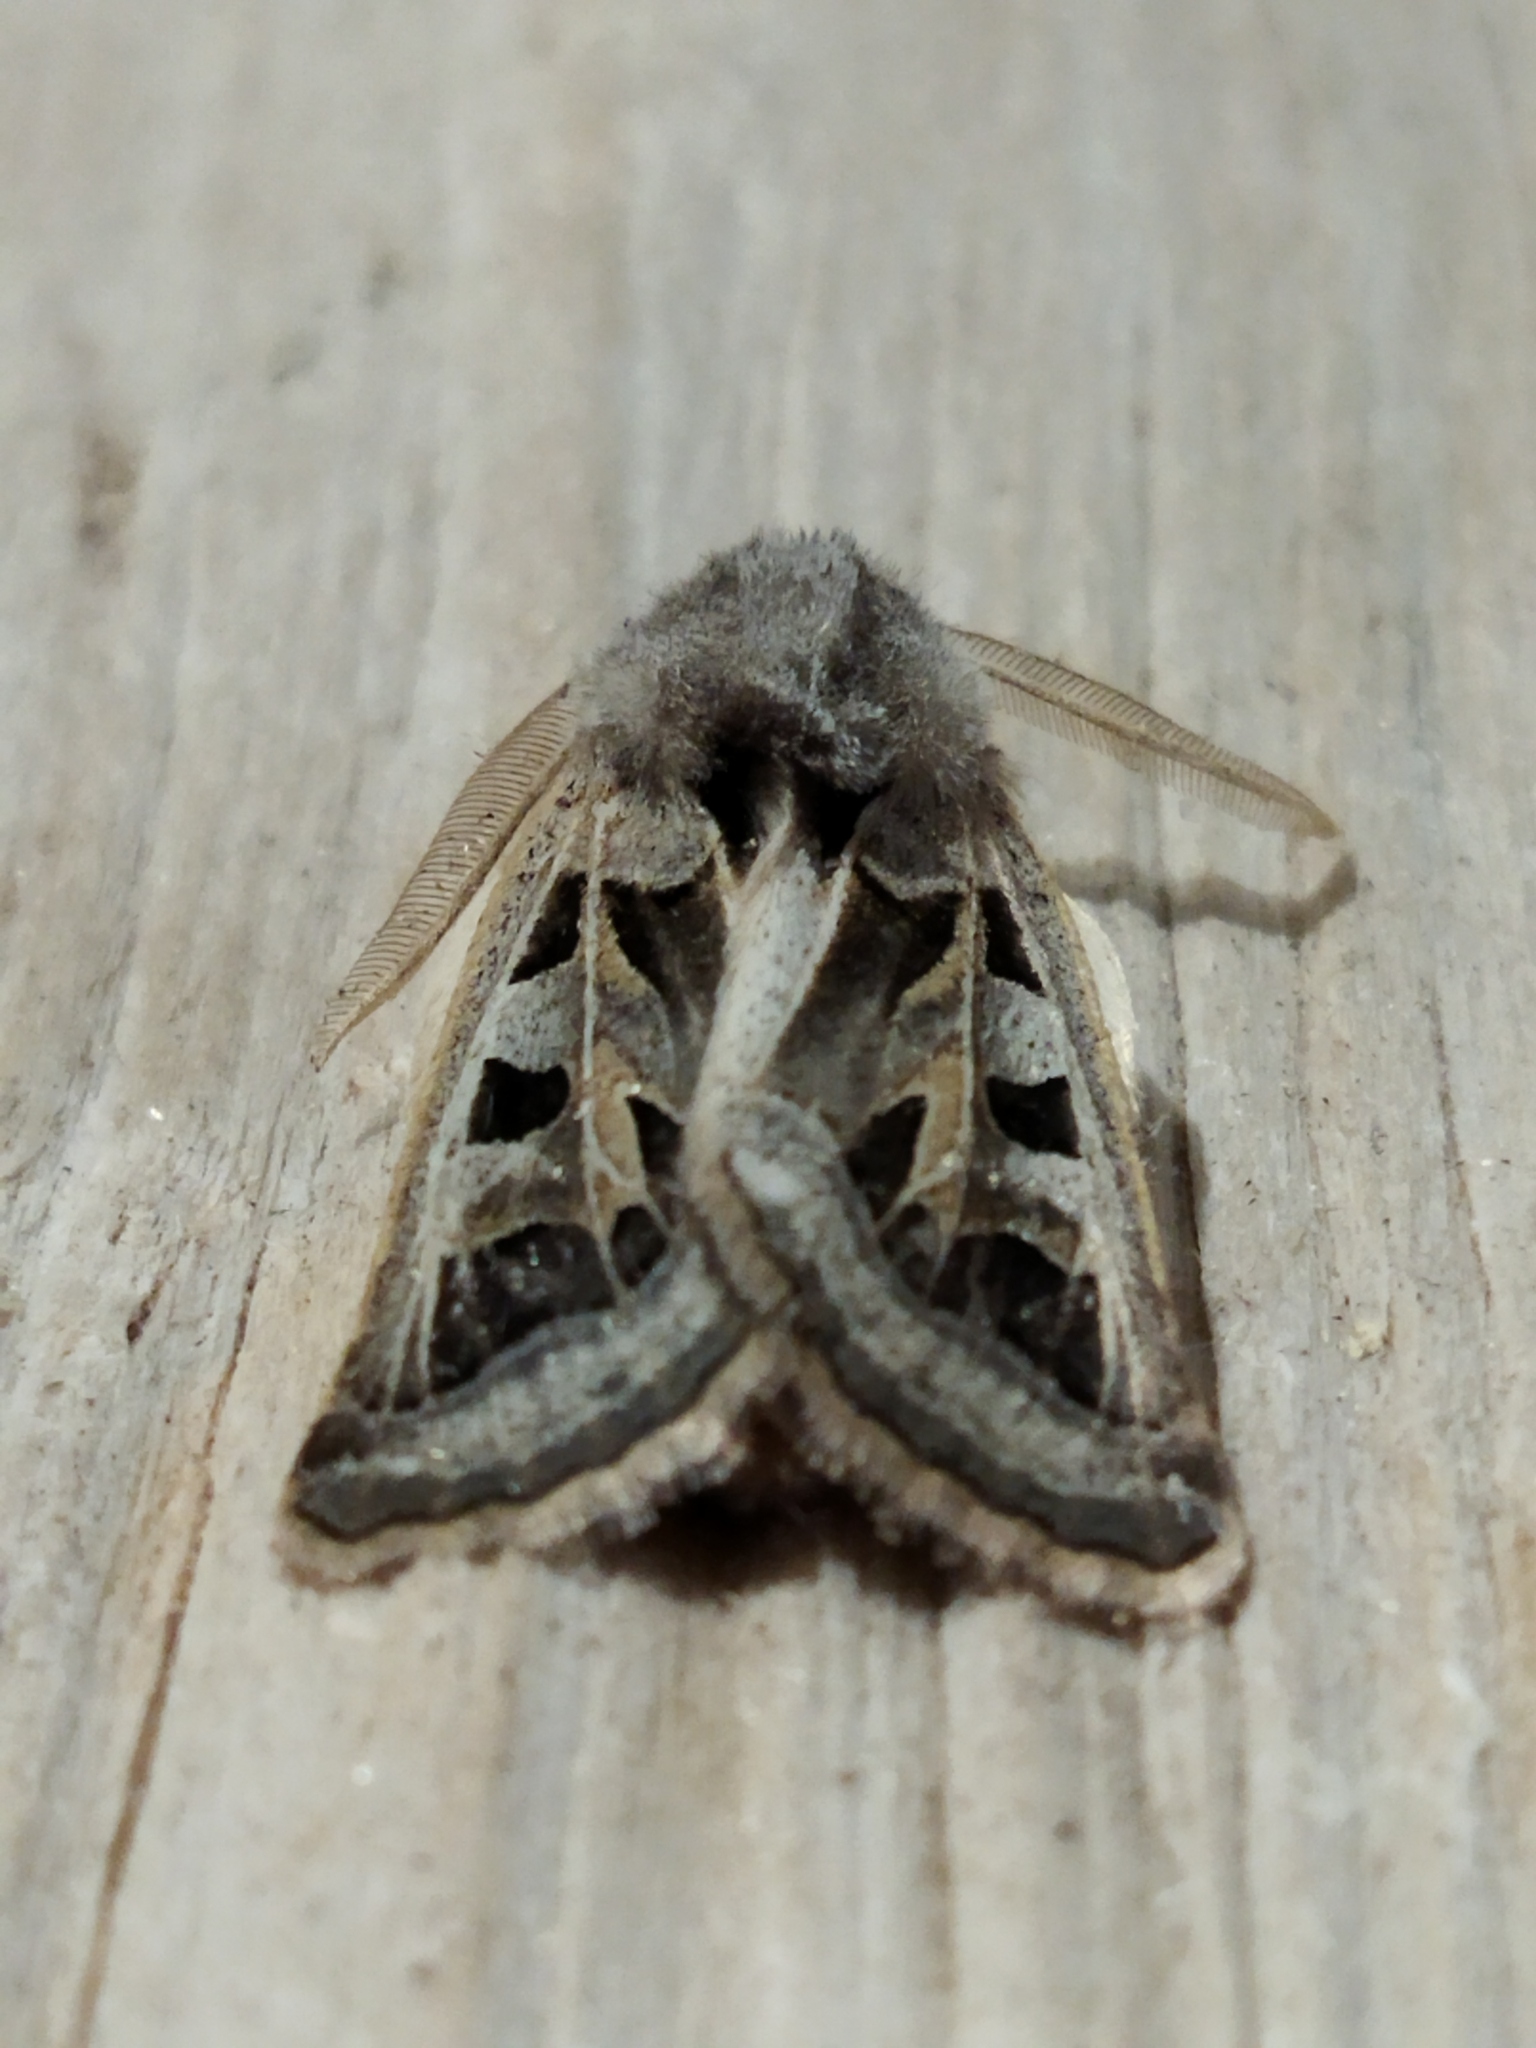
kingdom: Animalia
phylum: Arthropoda
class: Insecta
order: Lepidoptera
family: Noctuidae
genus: Episema
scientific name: Episema glaucina
